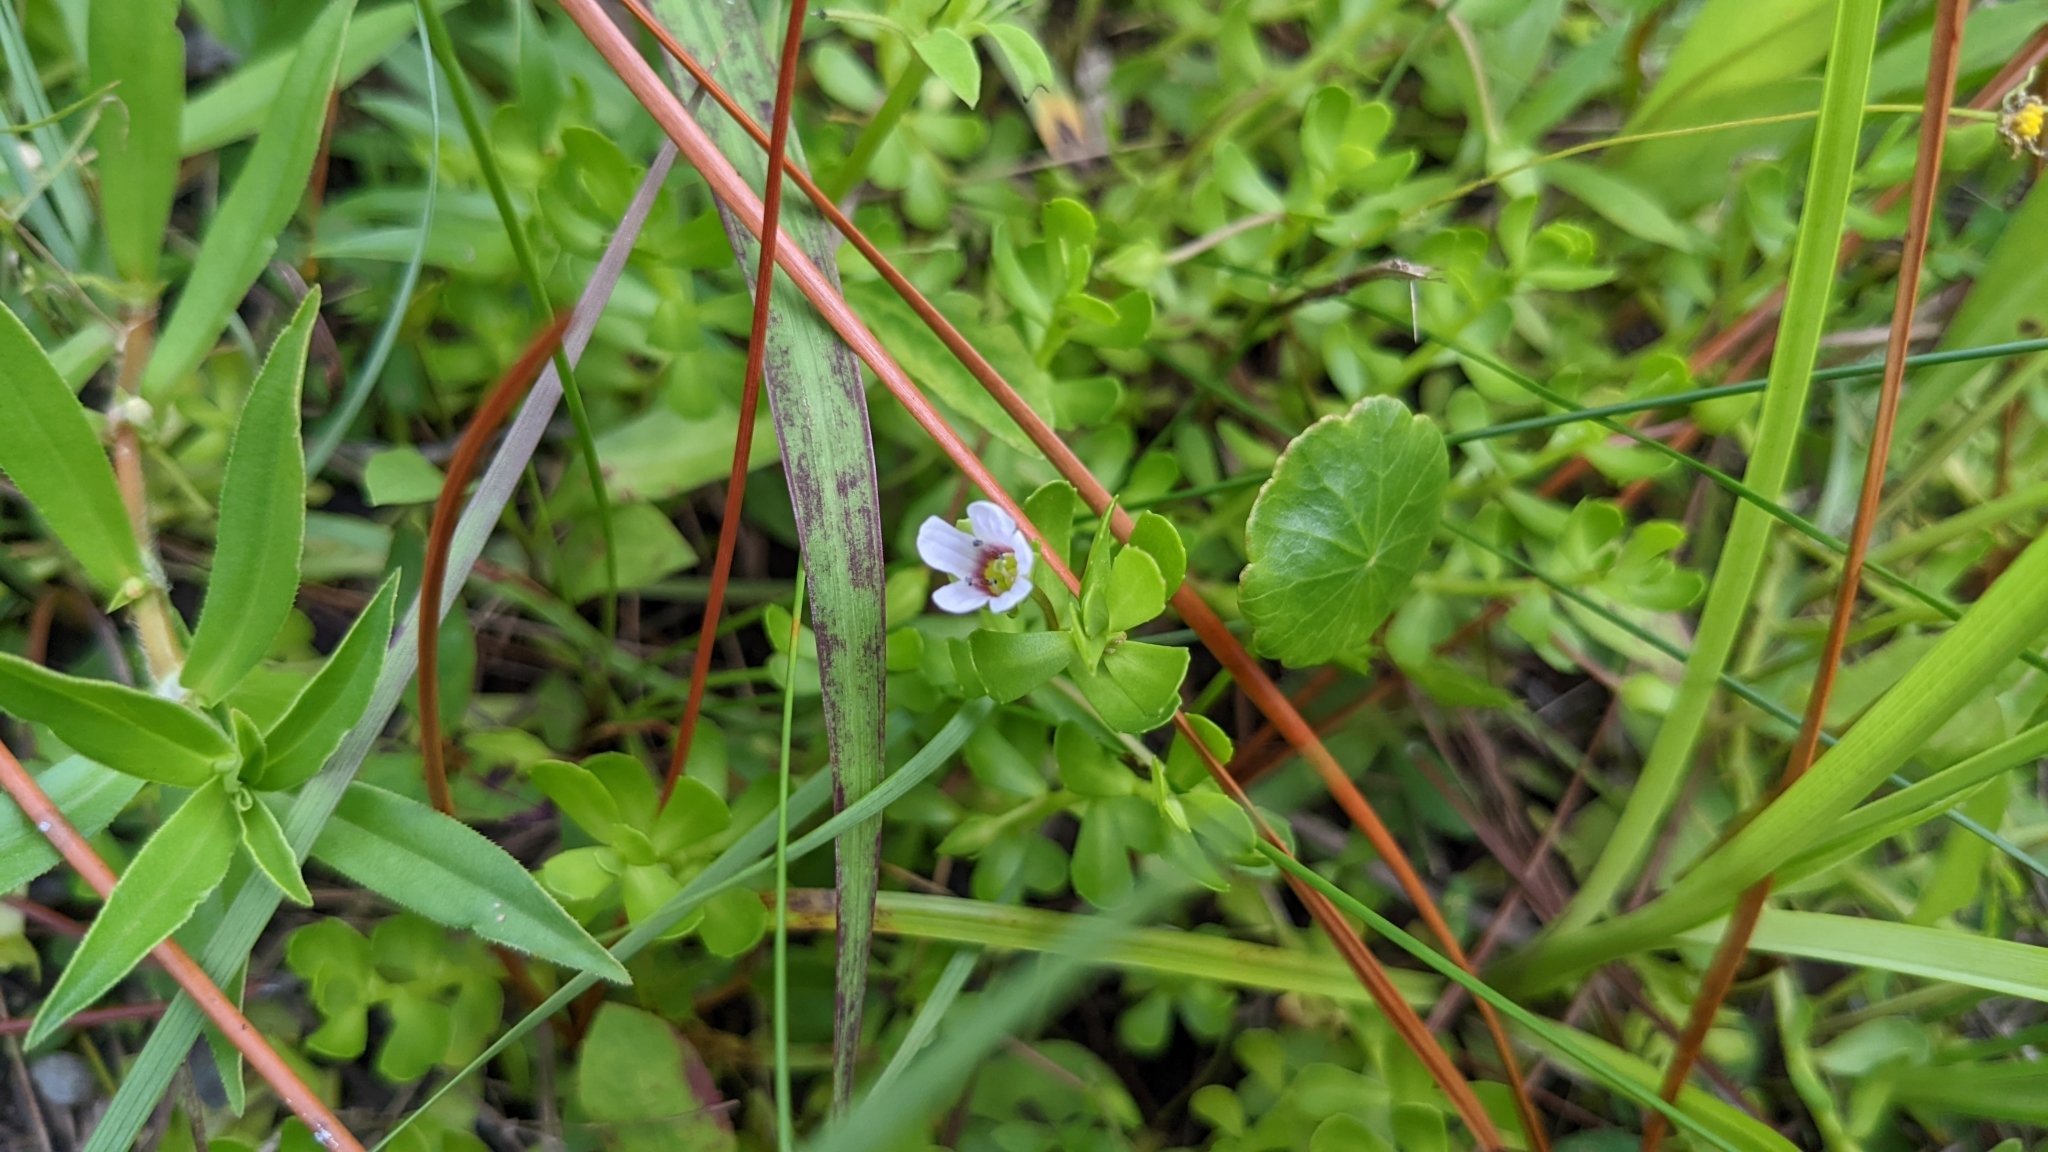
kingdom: Plantae
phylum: Tracheophyta
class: Magnoliopsida
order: Lamiales
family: Plantaginaceae
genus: Bacopa
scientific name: Bacopa monnieri
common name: Indian-pennywort
